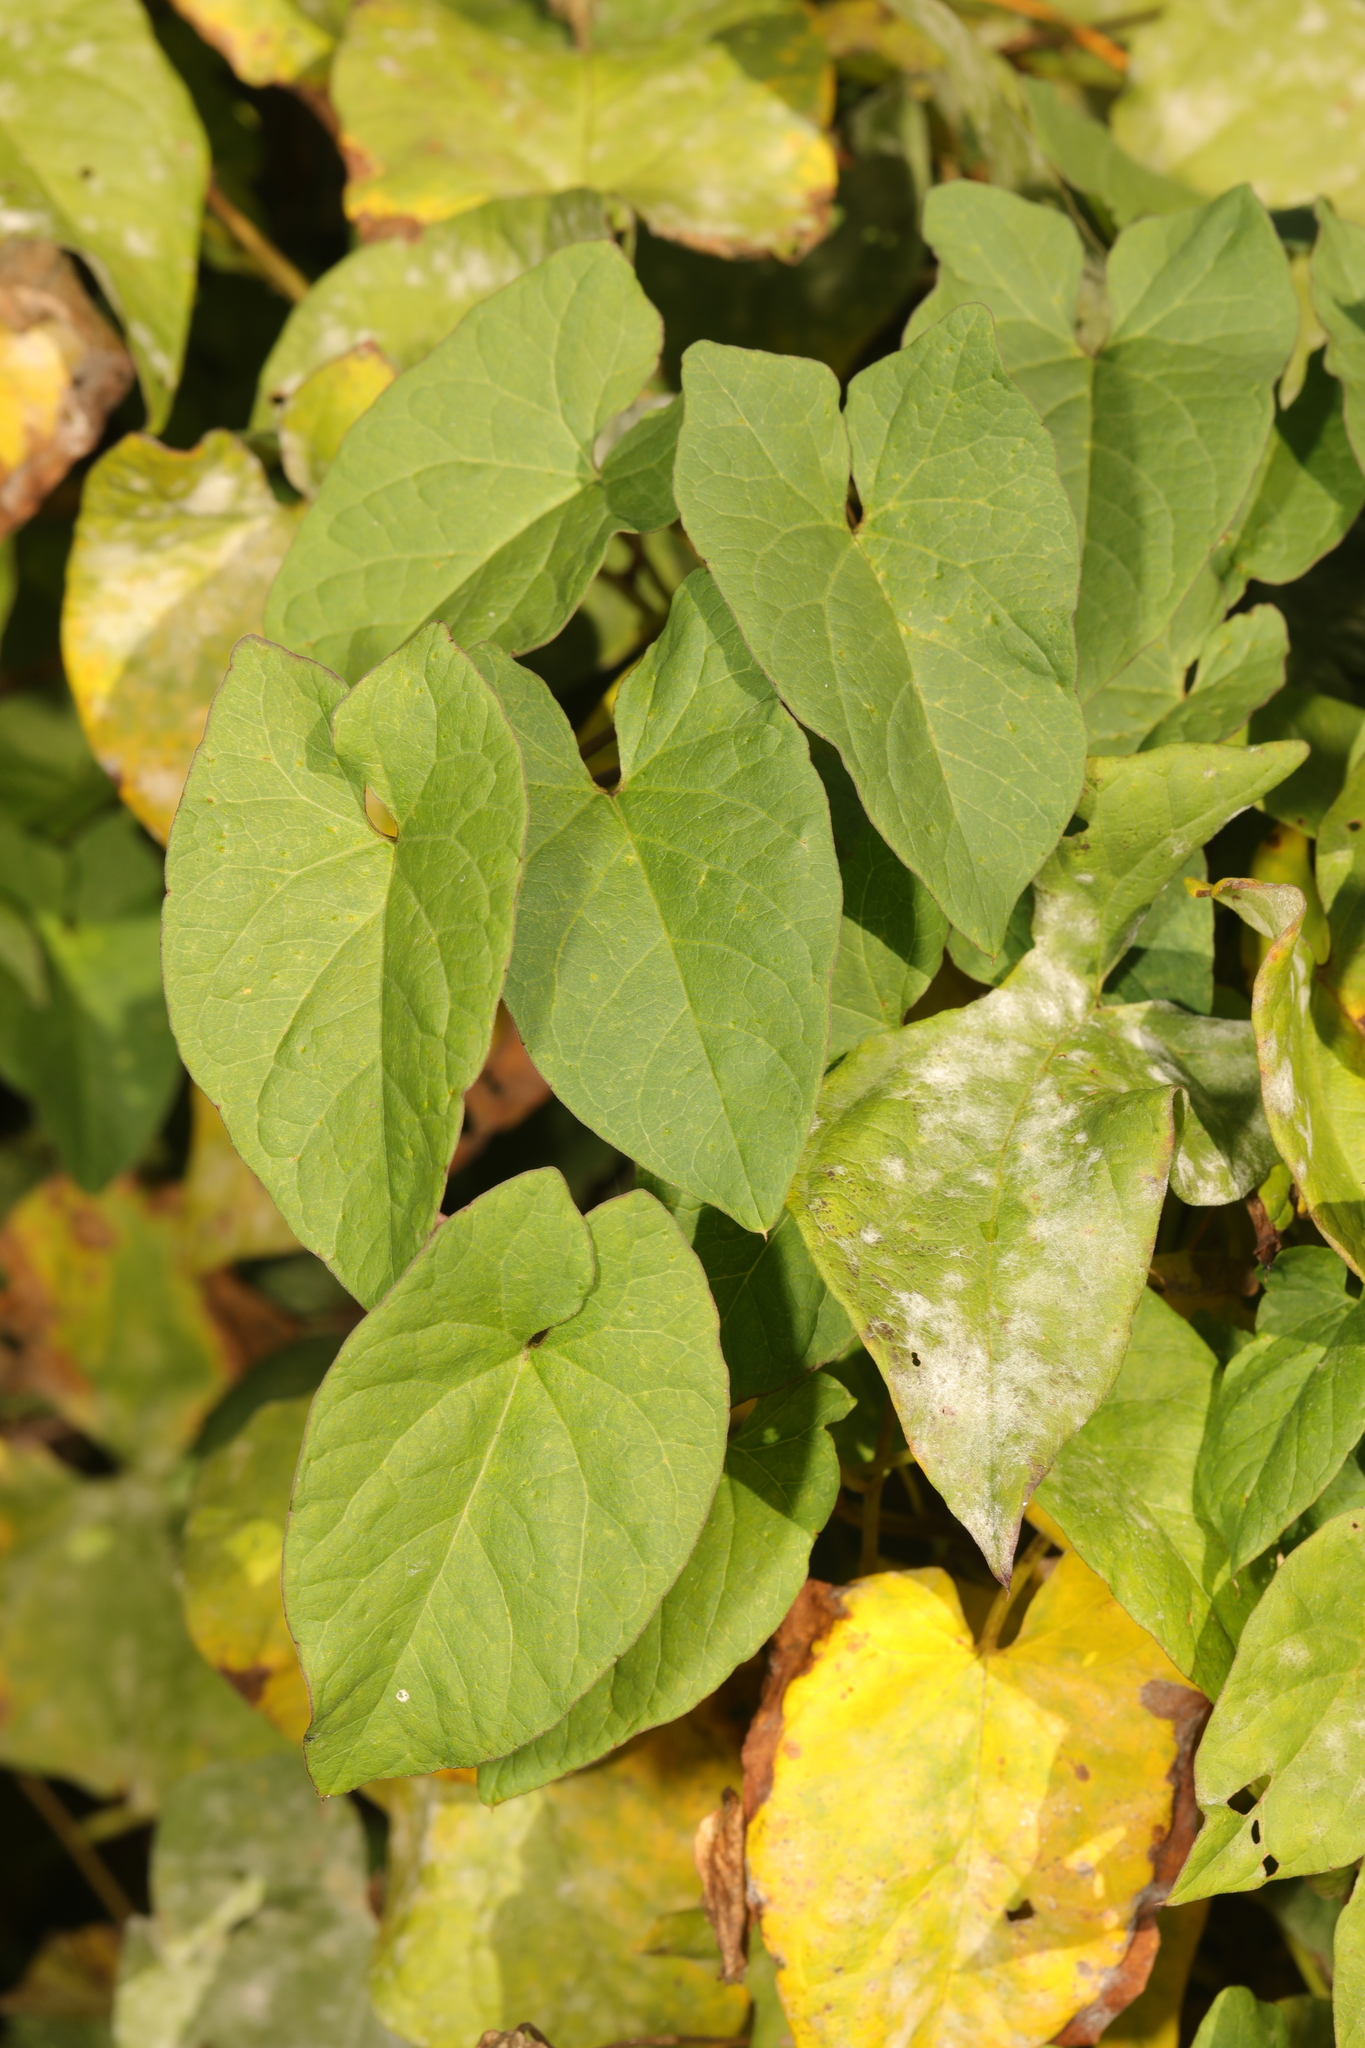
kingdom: Plantae
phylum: Tracheophyta
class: Magnoliopsida
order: Solanales
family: Convolvulaceae
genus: Calystegia
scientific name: Calystegia silvatica
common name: Large bindweed
